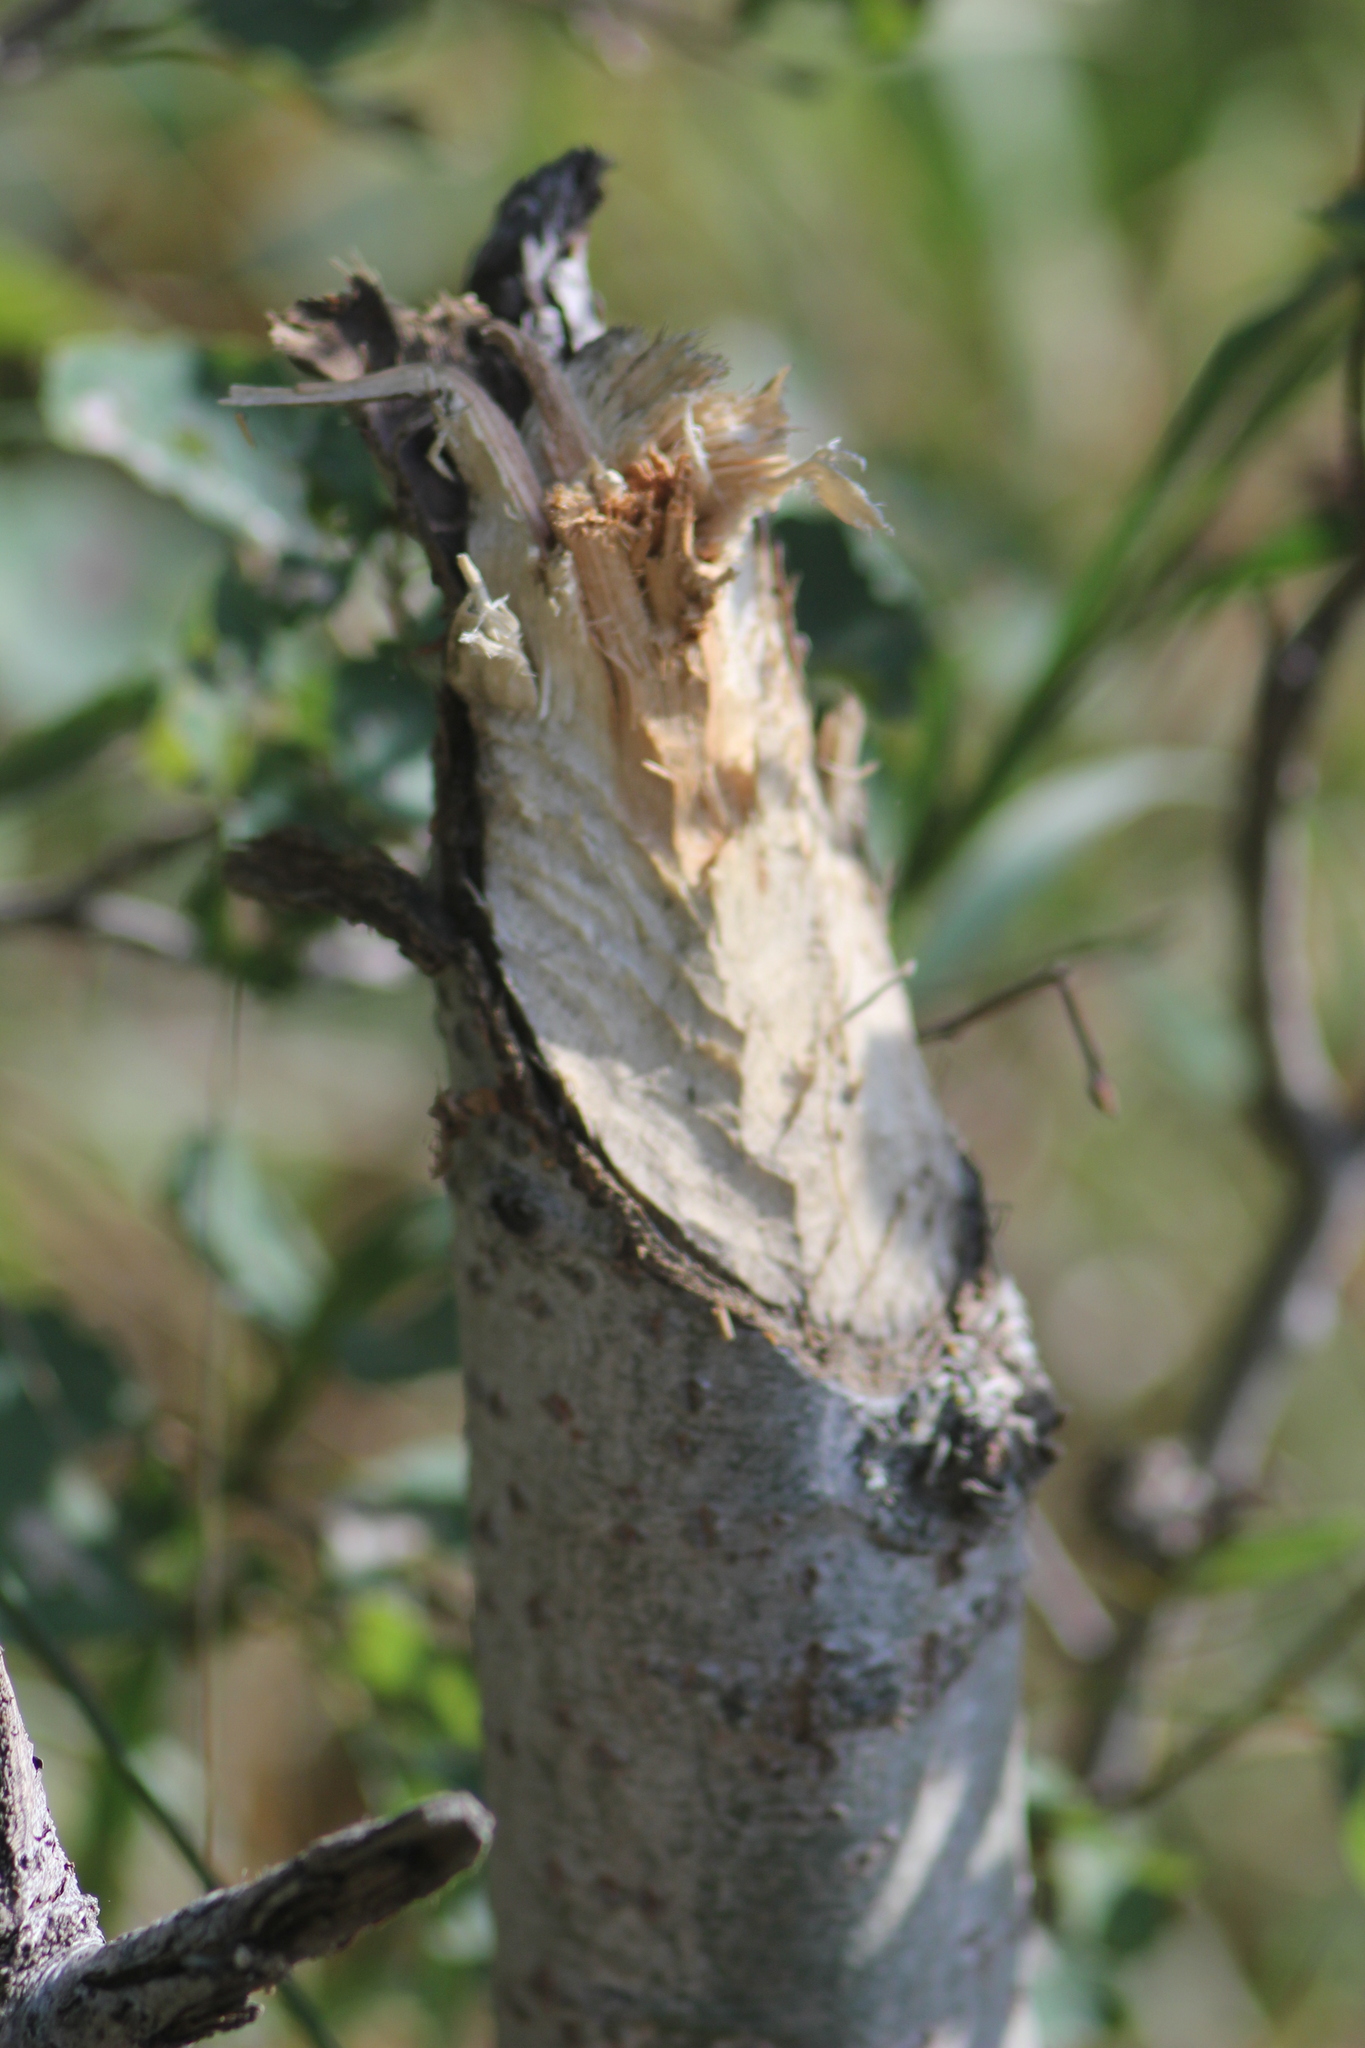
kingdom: Animalia
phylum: Chordata
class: Mammalia
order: Rodentia
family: Castoridae
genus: Castor
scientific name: Castor fiber
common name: Eurasian beaver
